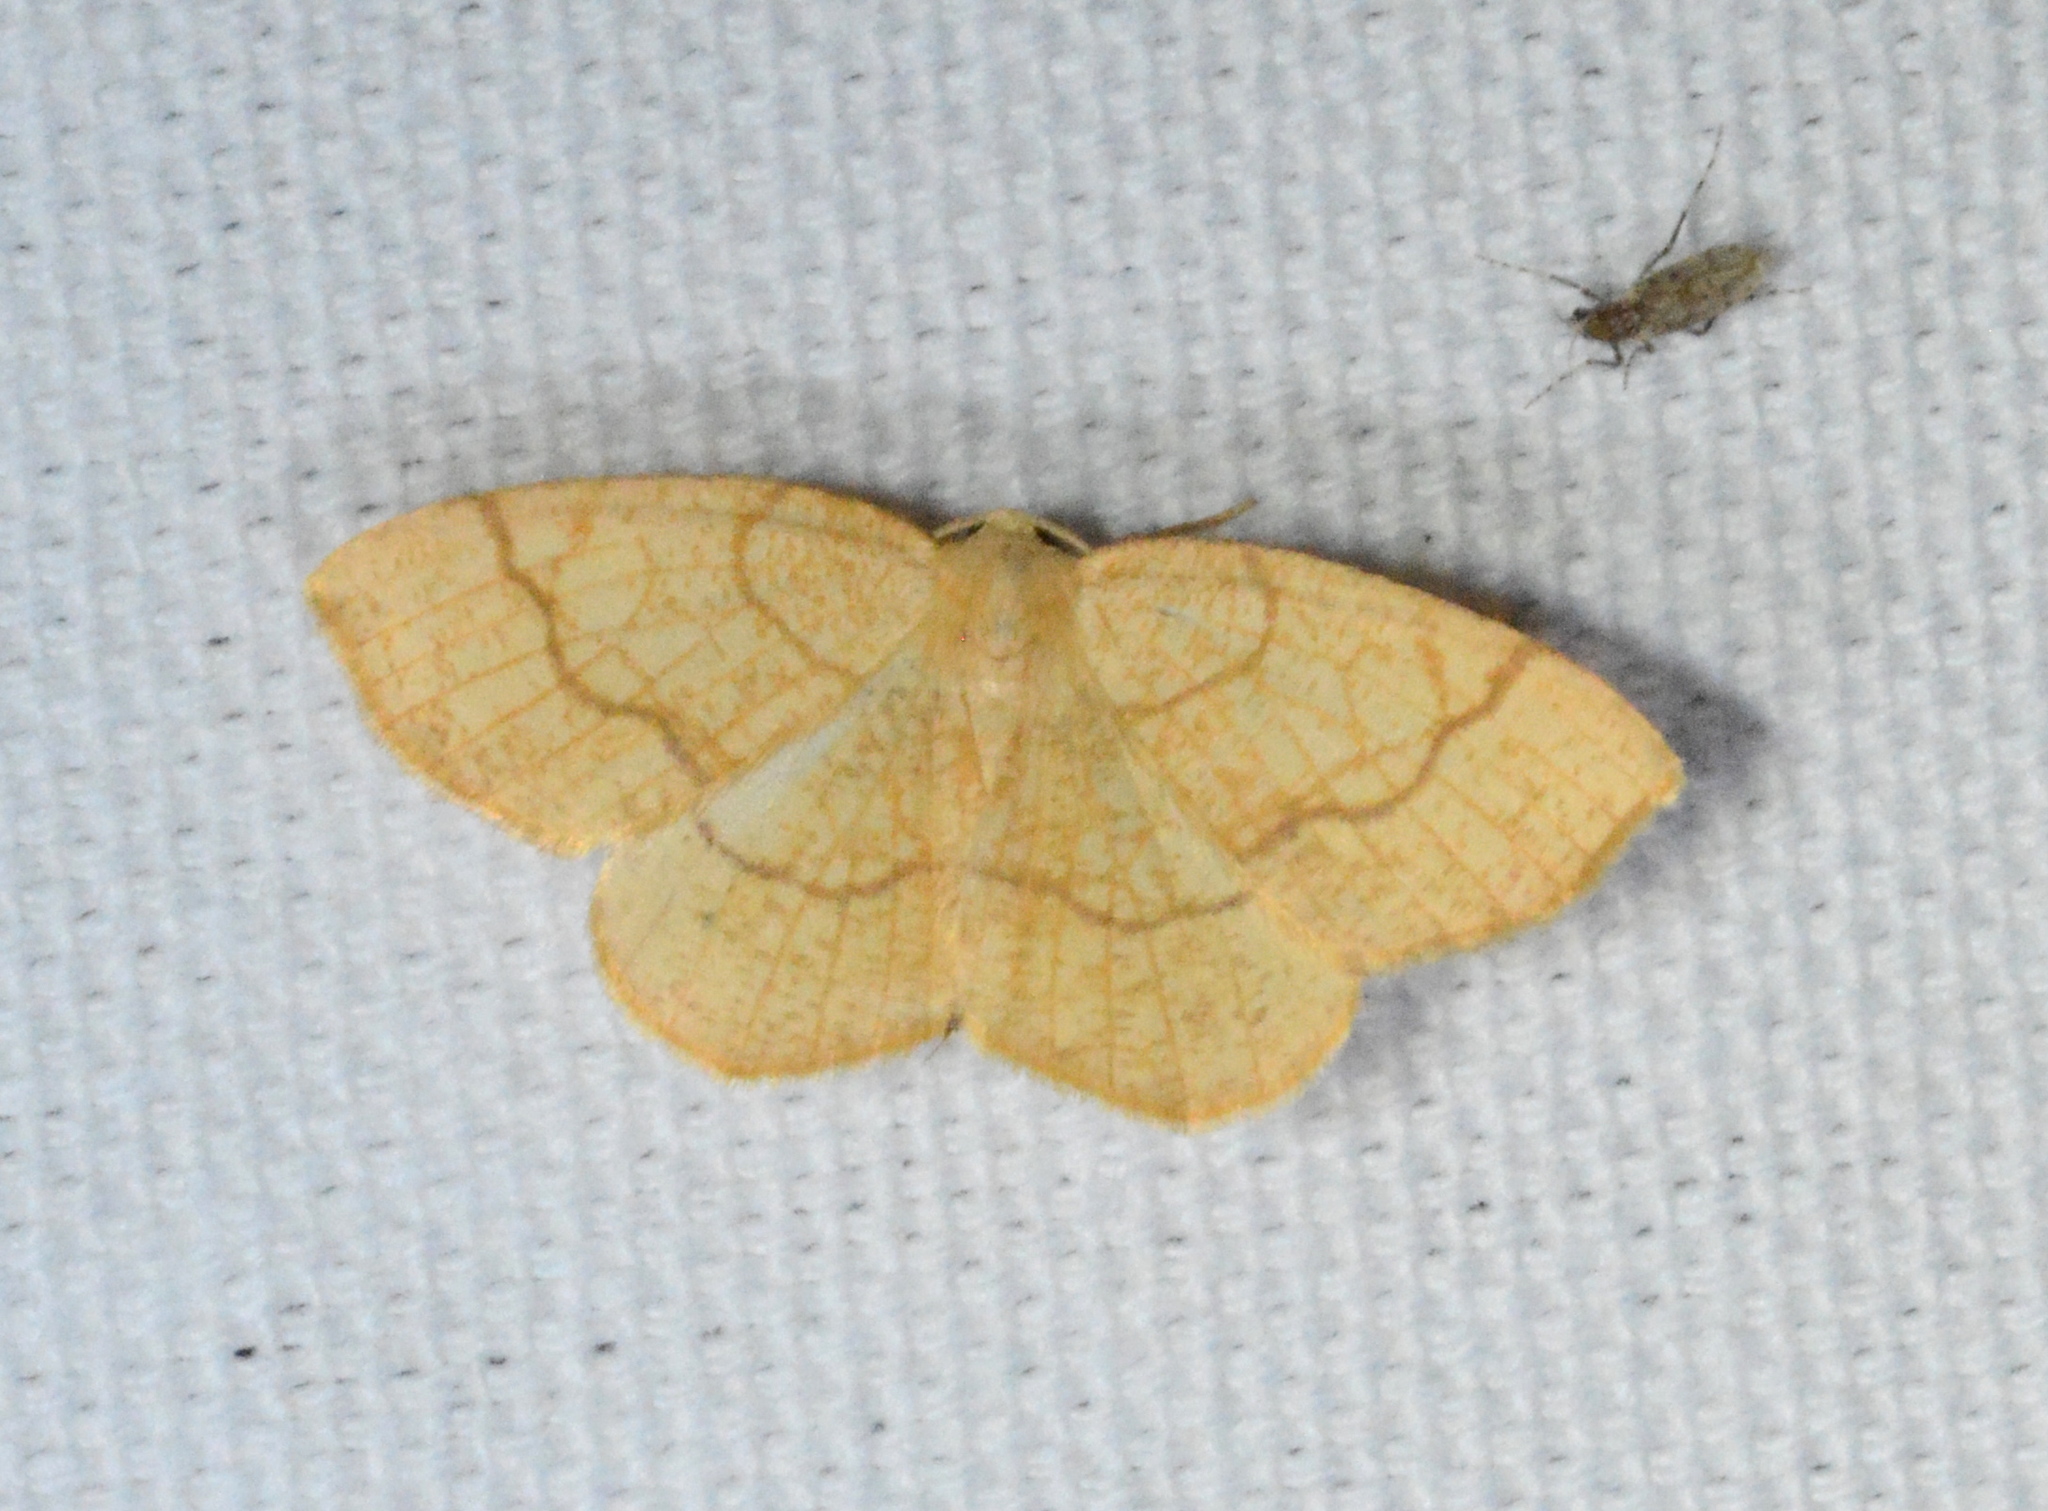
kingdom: Animalia
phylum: Arthropoda
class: Insecta
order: Lepidoptera
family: Geometridae
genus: Nematocampa
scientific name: Nematocampa resistaria
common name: Horned spanworm moth
